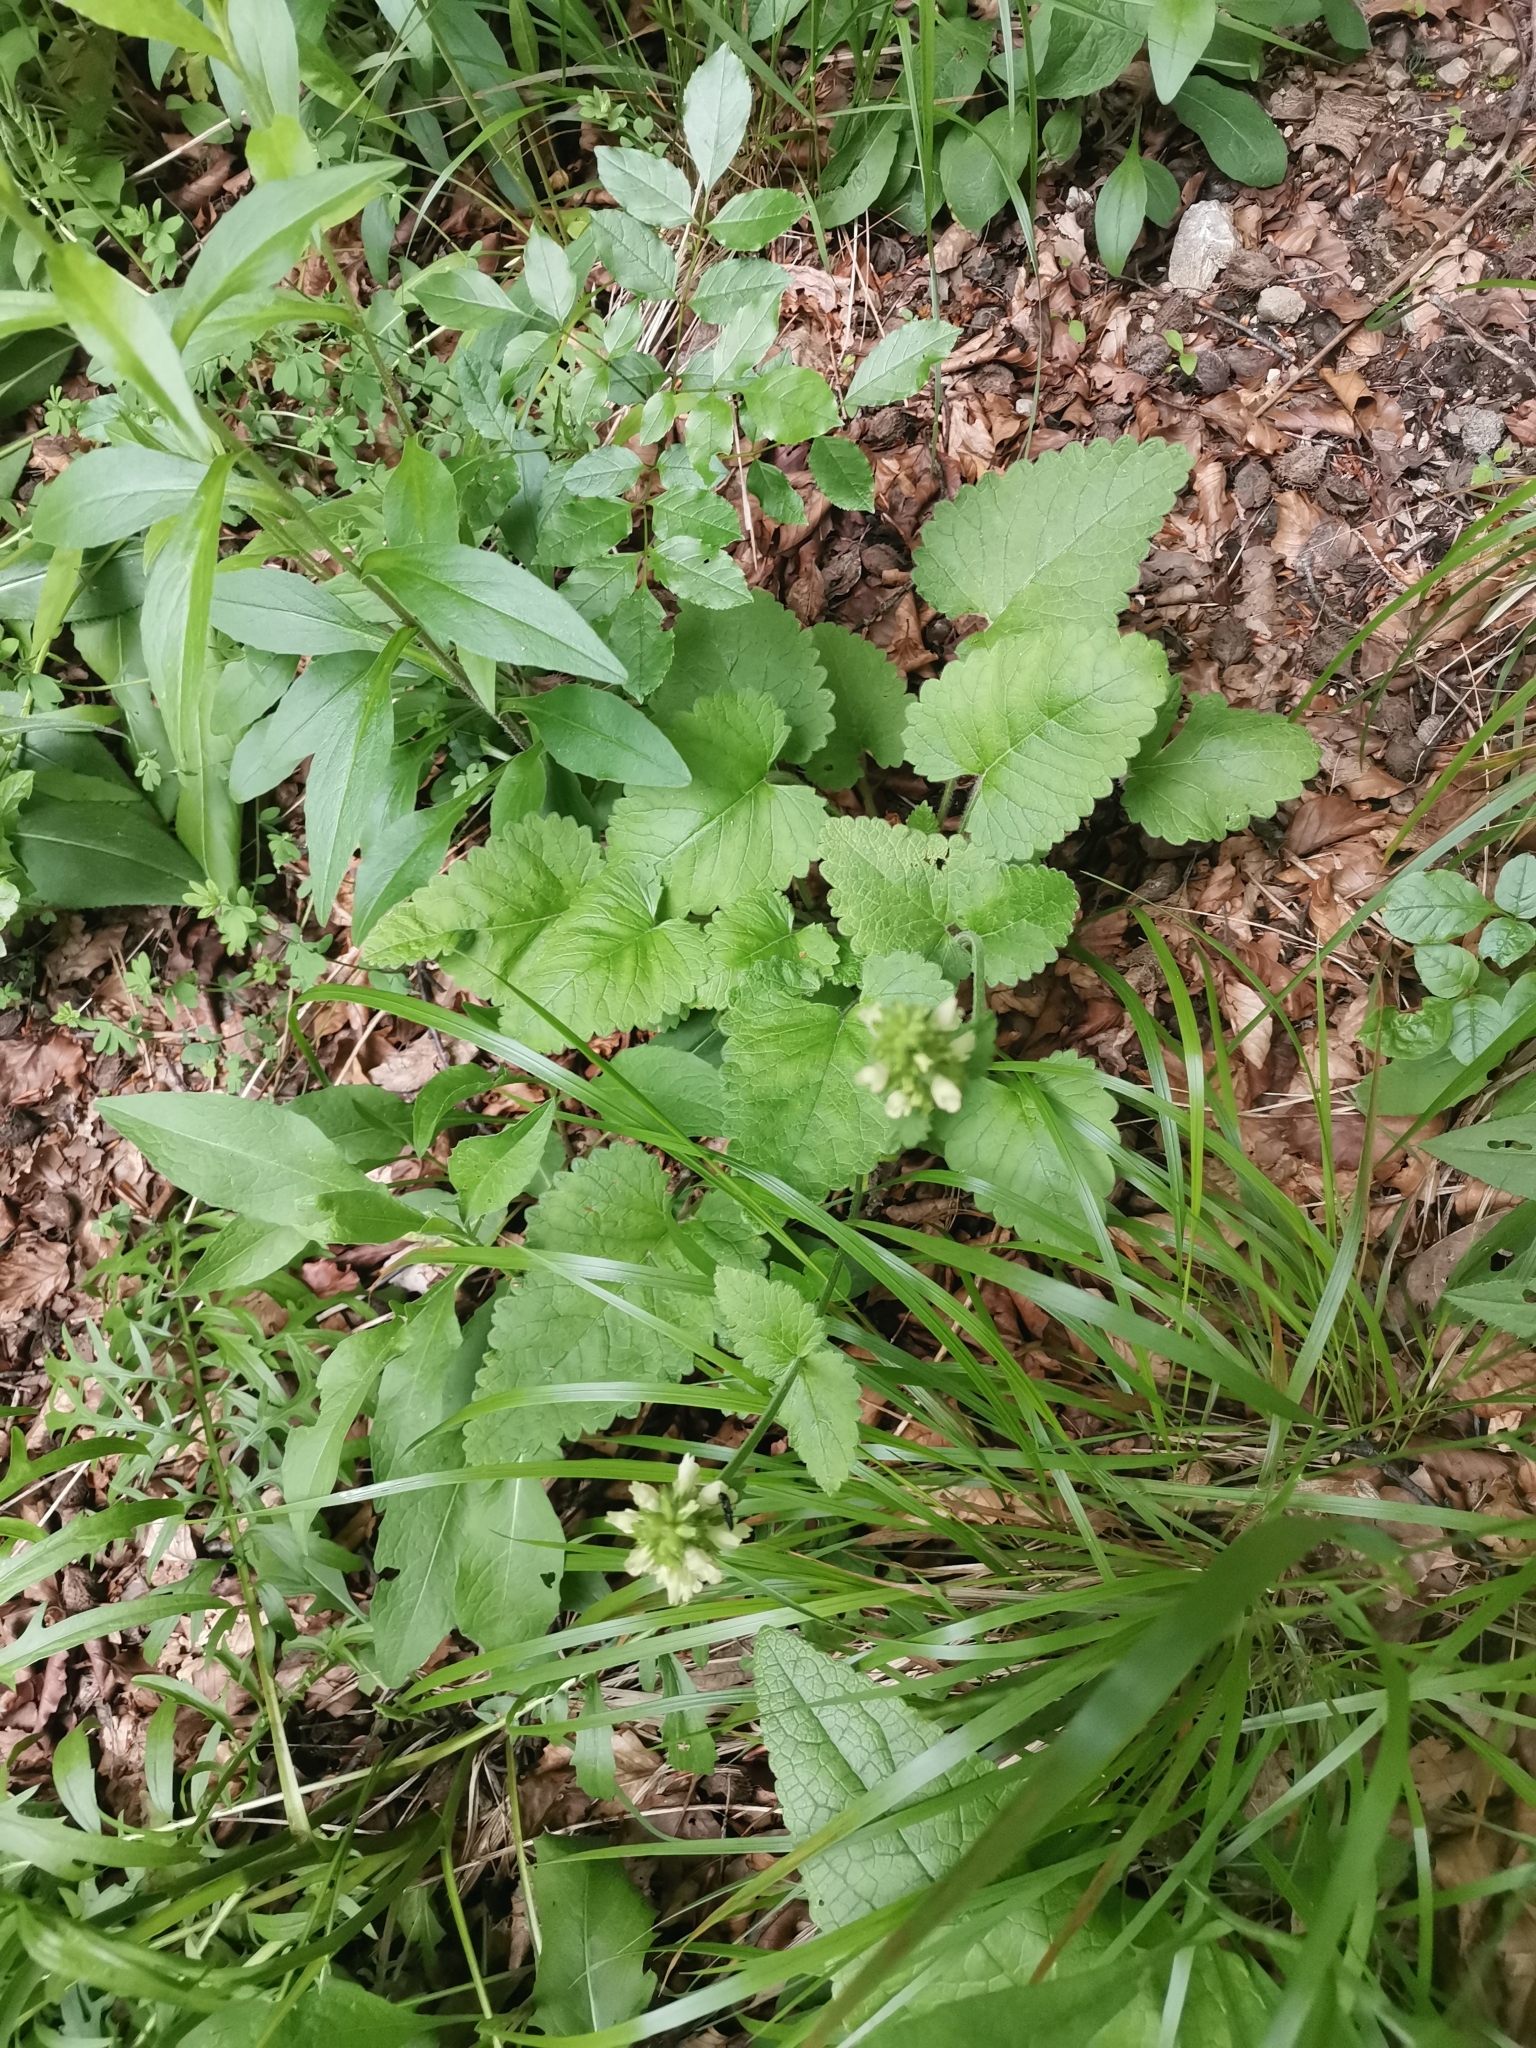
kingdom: Plantae
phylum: Tracheophyta
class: Magnoliopsida
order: Lamiales
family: Lamiaceae
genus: Betonica
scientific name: Betonica alopecuros
